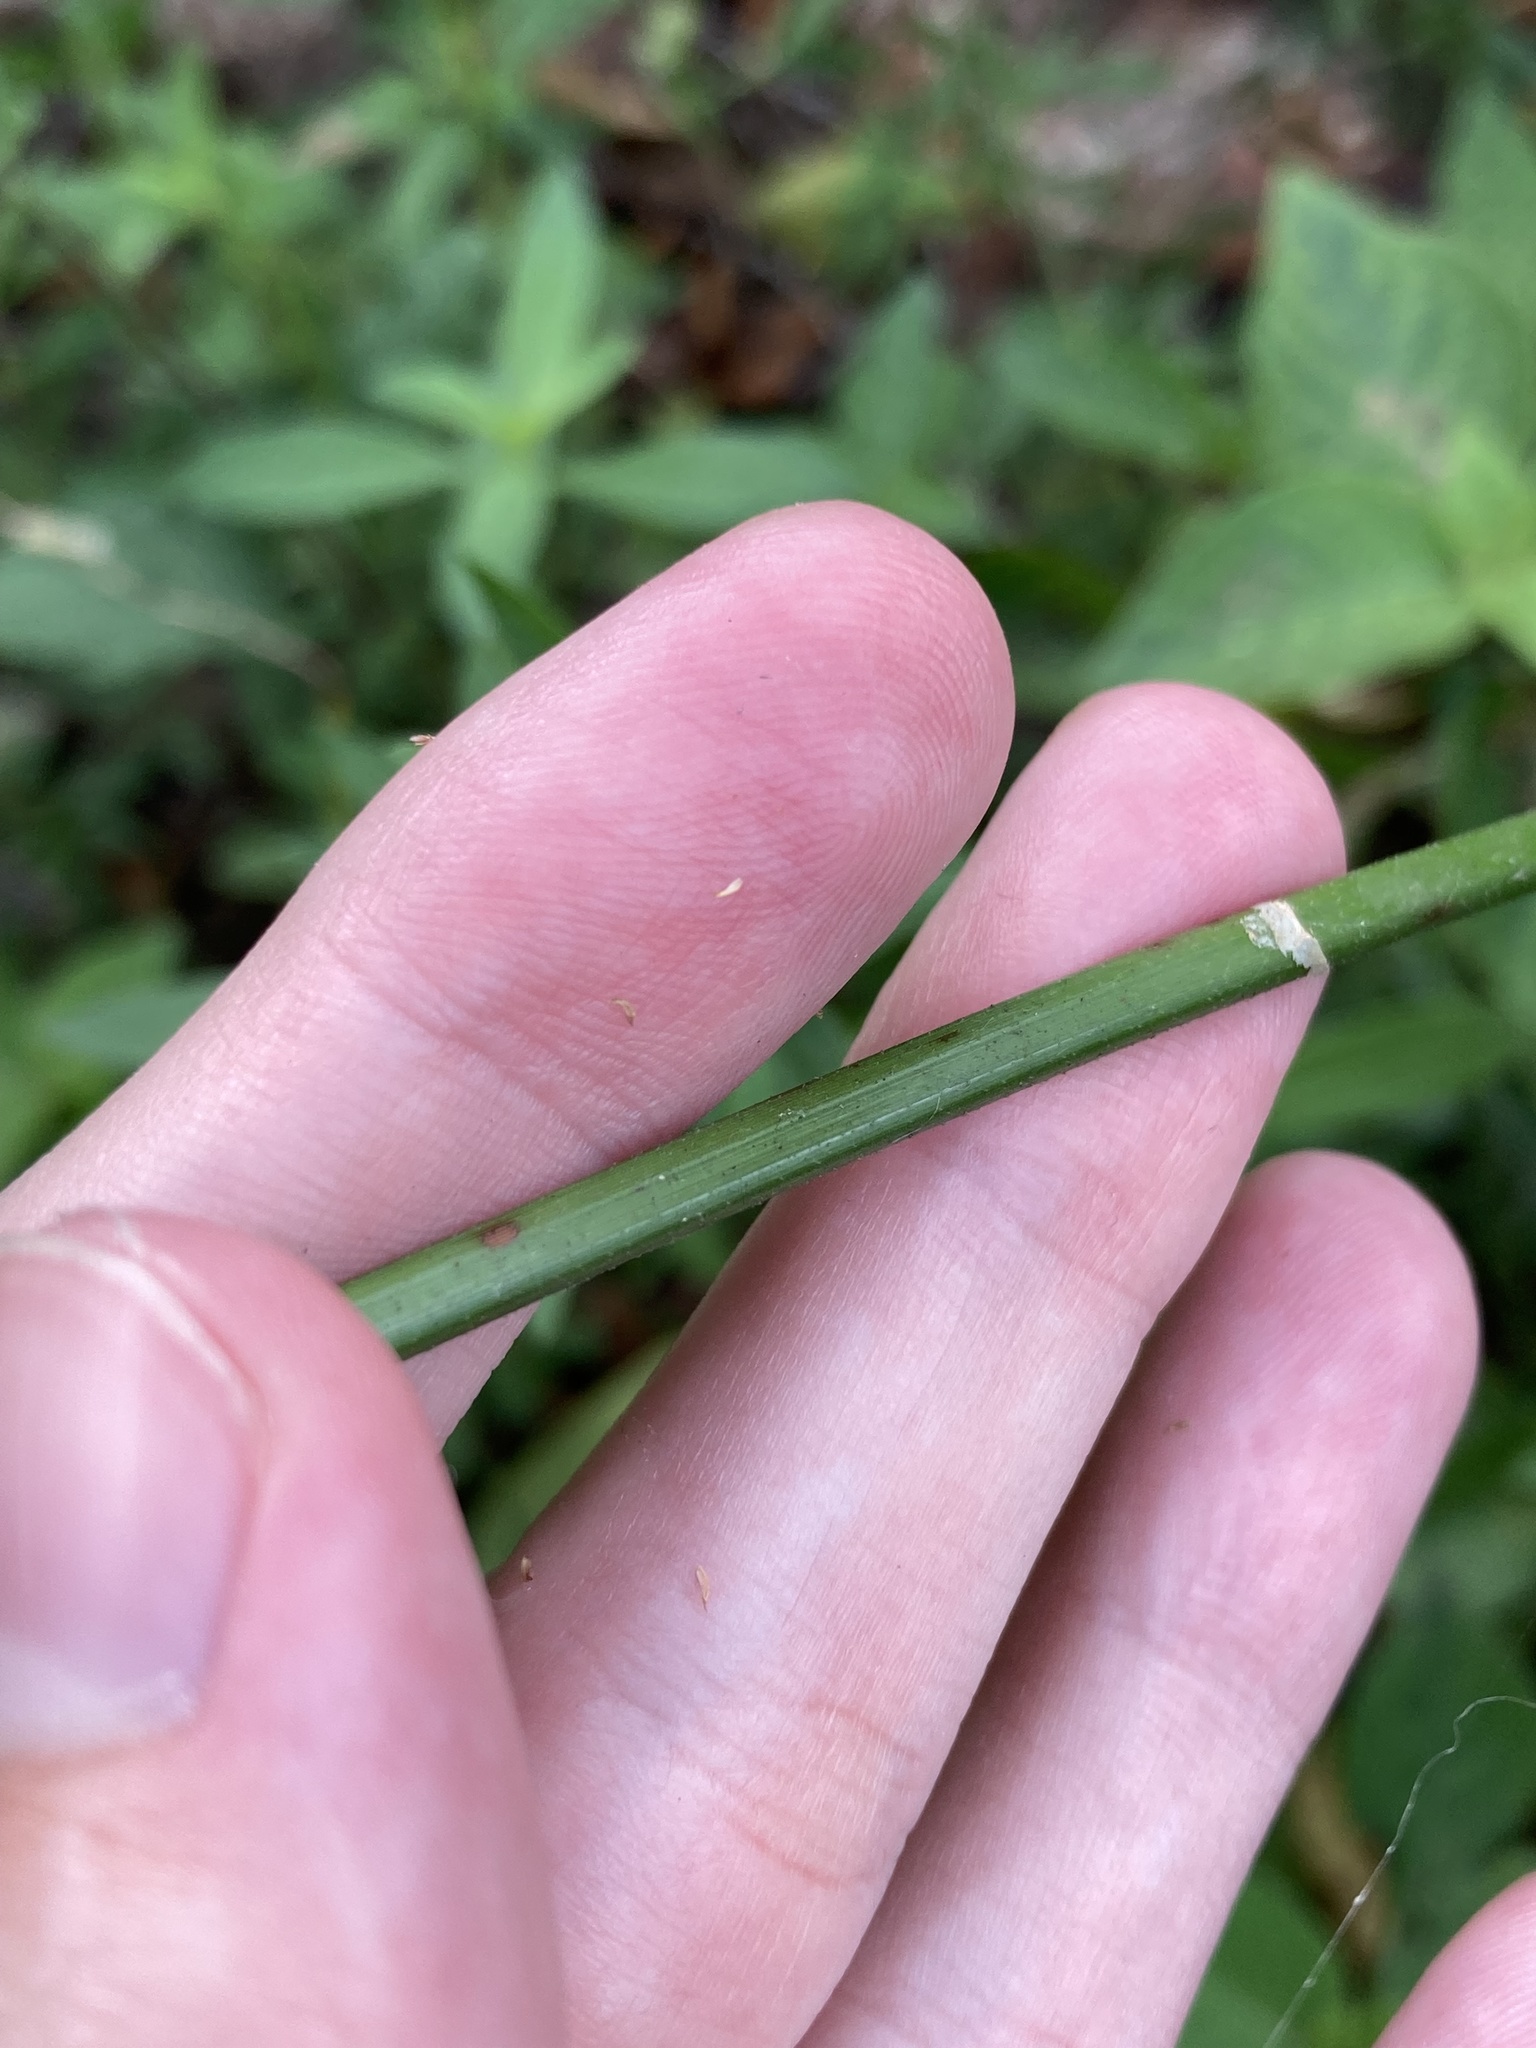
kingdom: Plantae
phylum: Tracheophyta
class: Liliopsida
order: Poales
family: Cyperaceae
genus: Cyperus
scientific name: Cyperus surinamensis
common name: Tropical flat sedge
